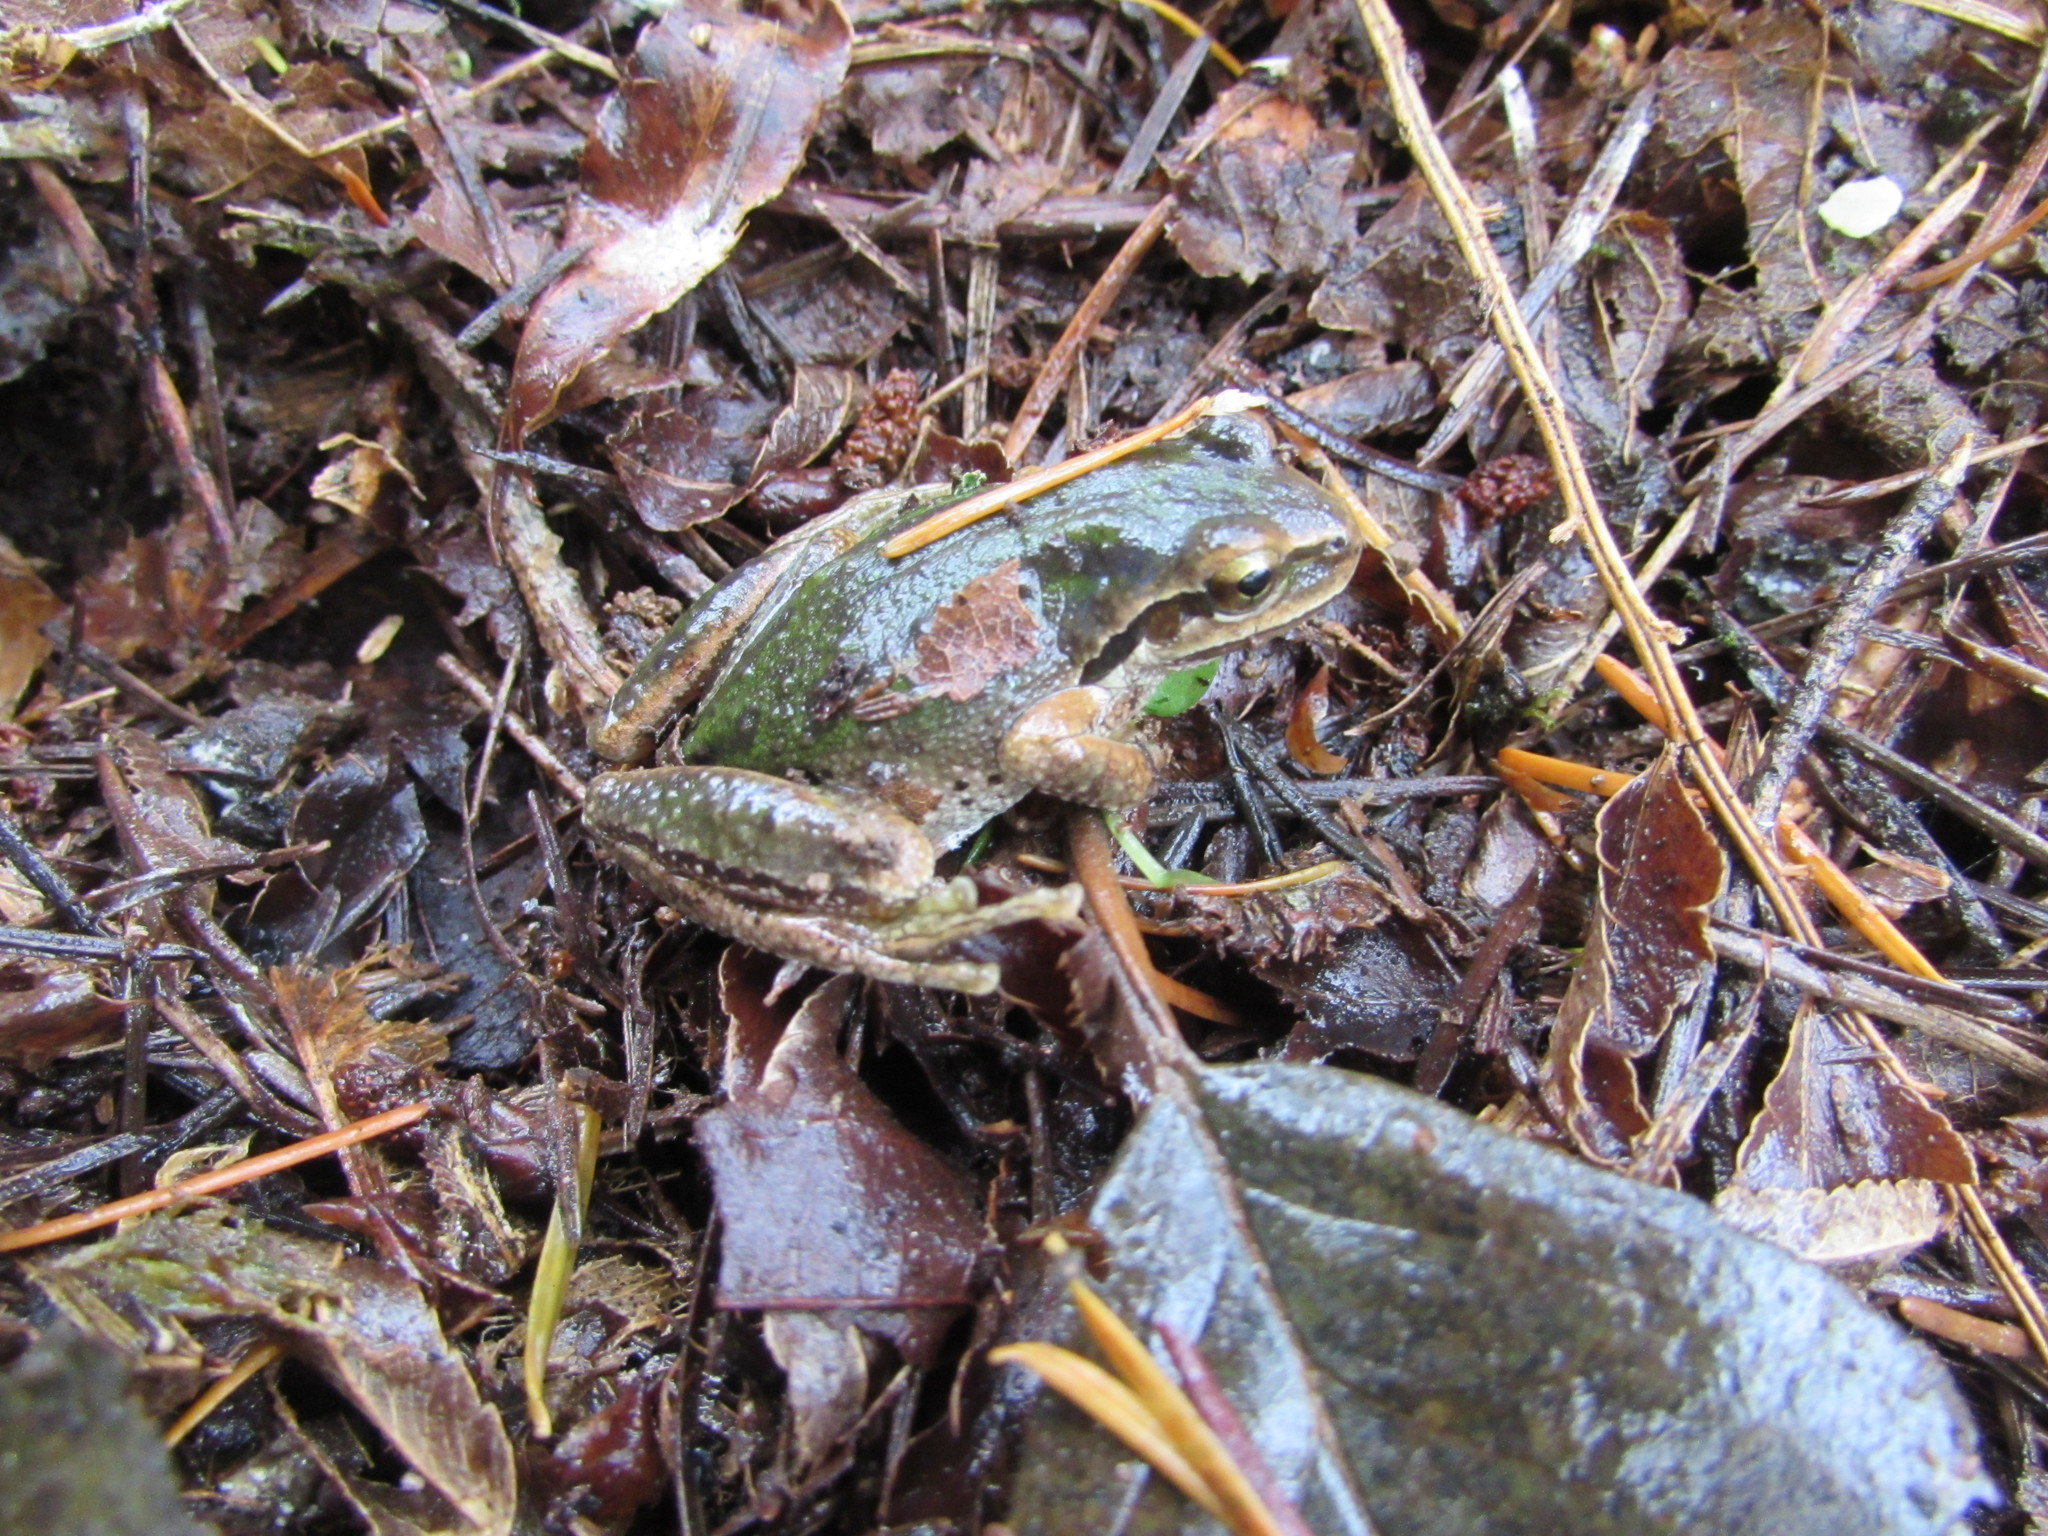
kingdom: Animalia
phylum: Chordata
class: Amphibia
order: Anura
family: Hylidae
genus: Pseudacris
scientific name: Pseudacris regilla
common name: Pacific chorus frog
